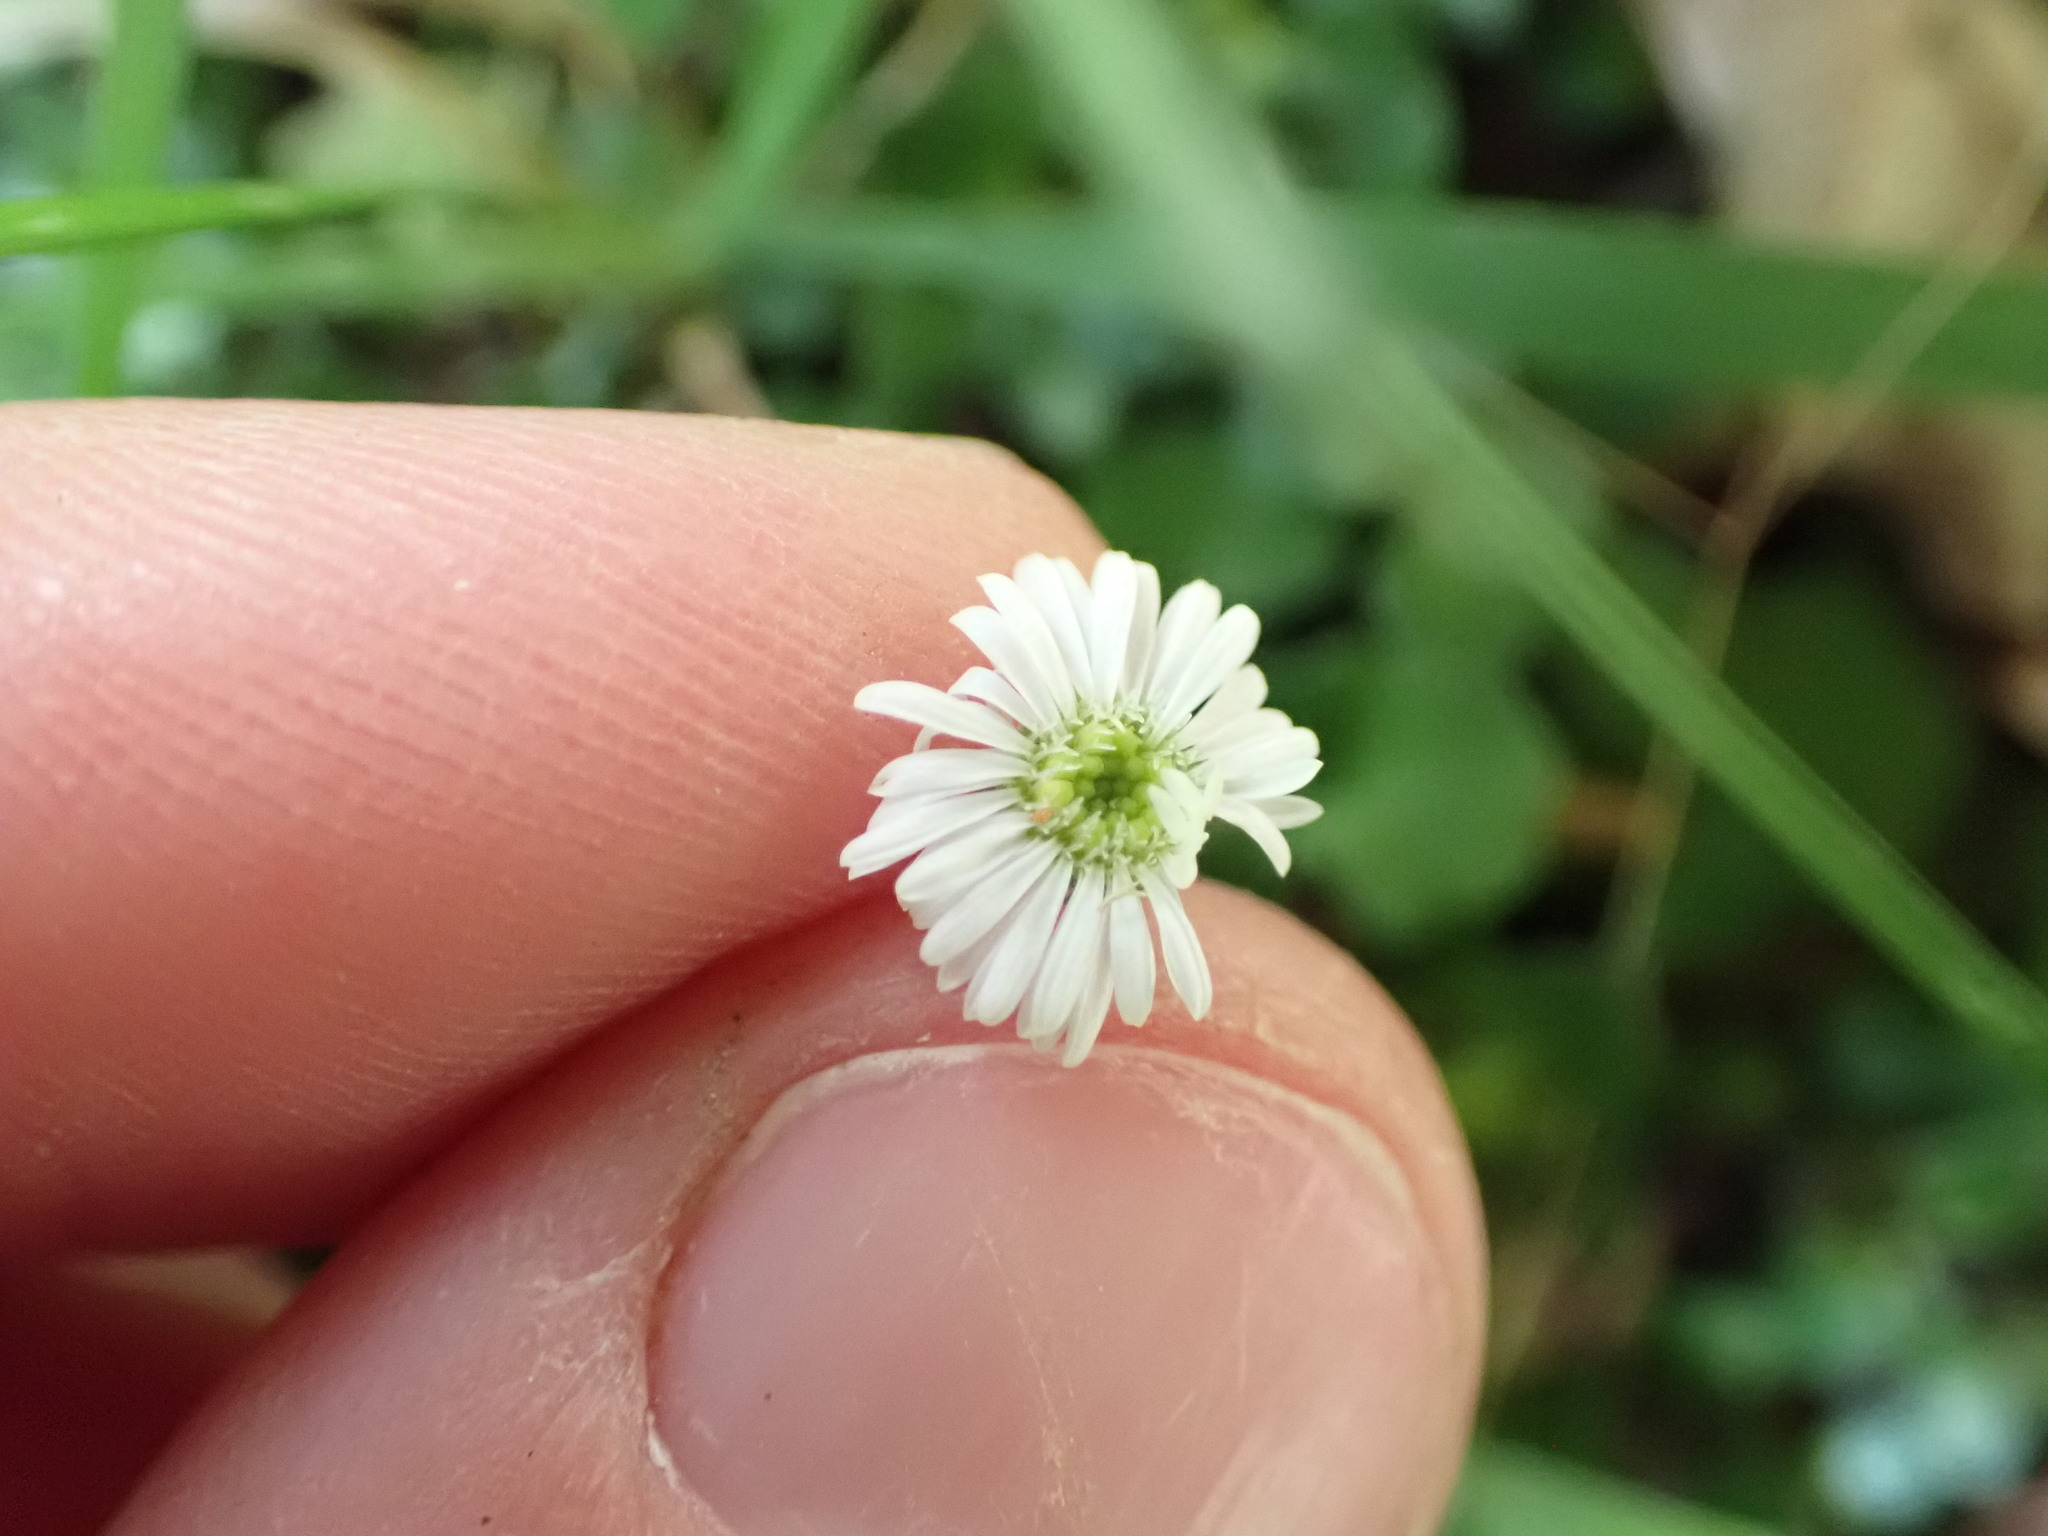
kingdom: Plantae
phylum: Tracheophyta
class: Magnoliopsida
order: Asterales
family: Asteraceae
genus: Lagenophora
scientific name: Lagenophora pumila
